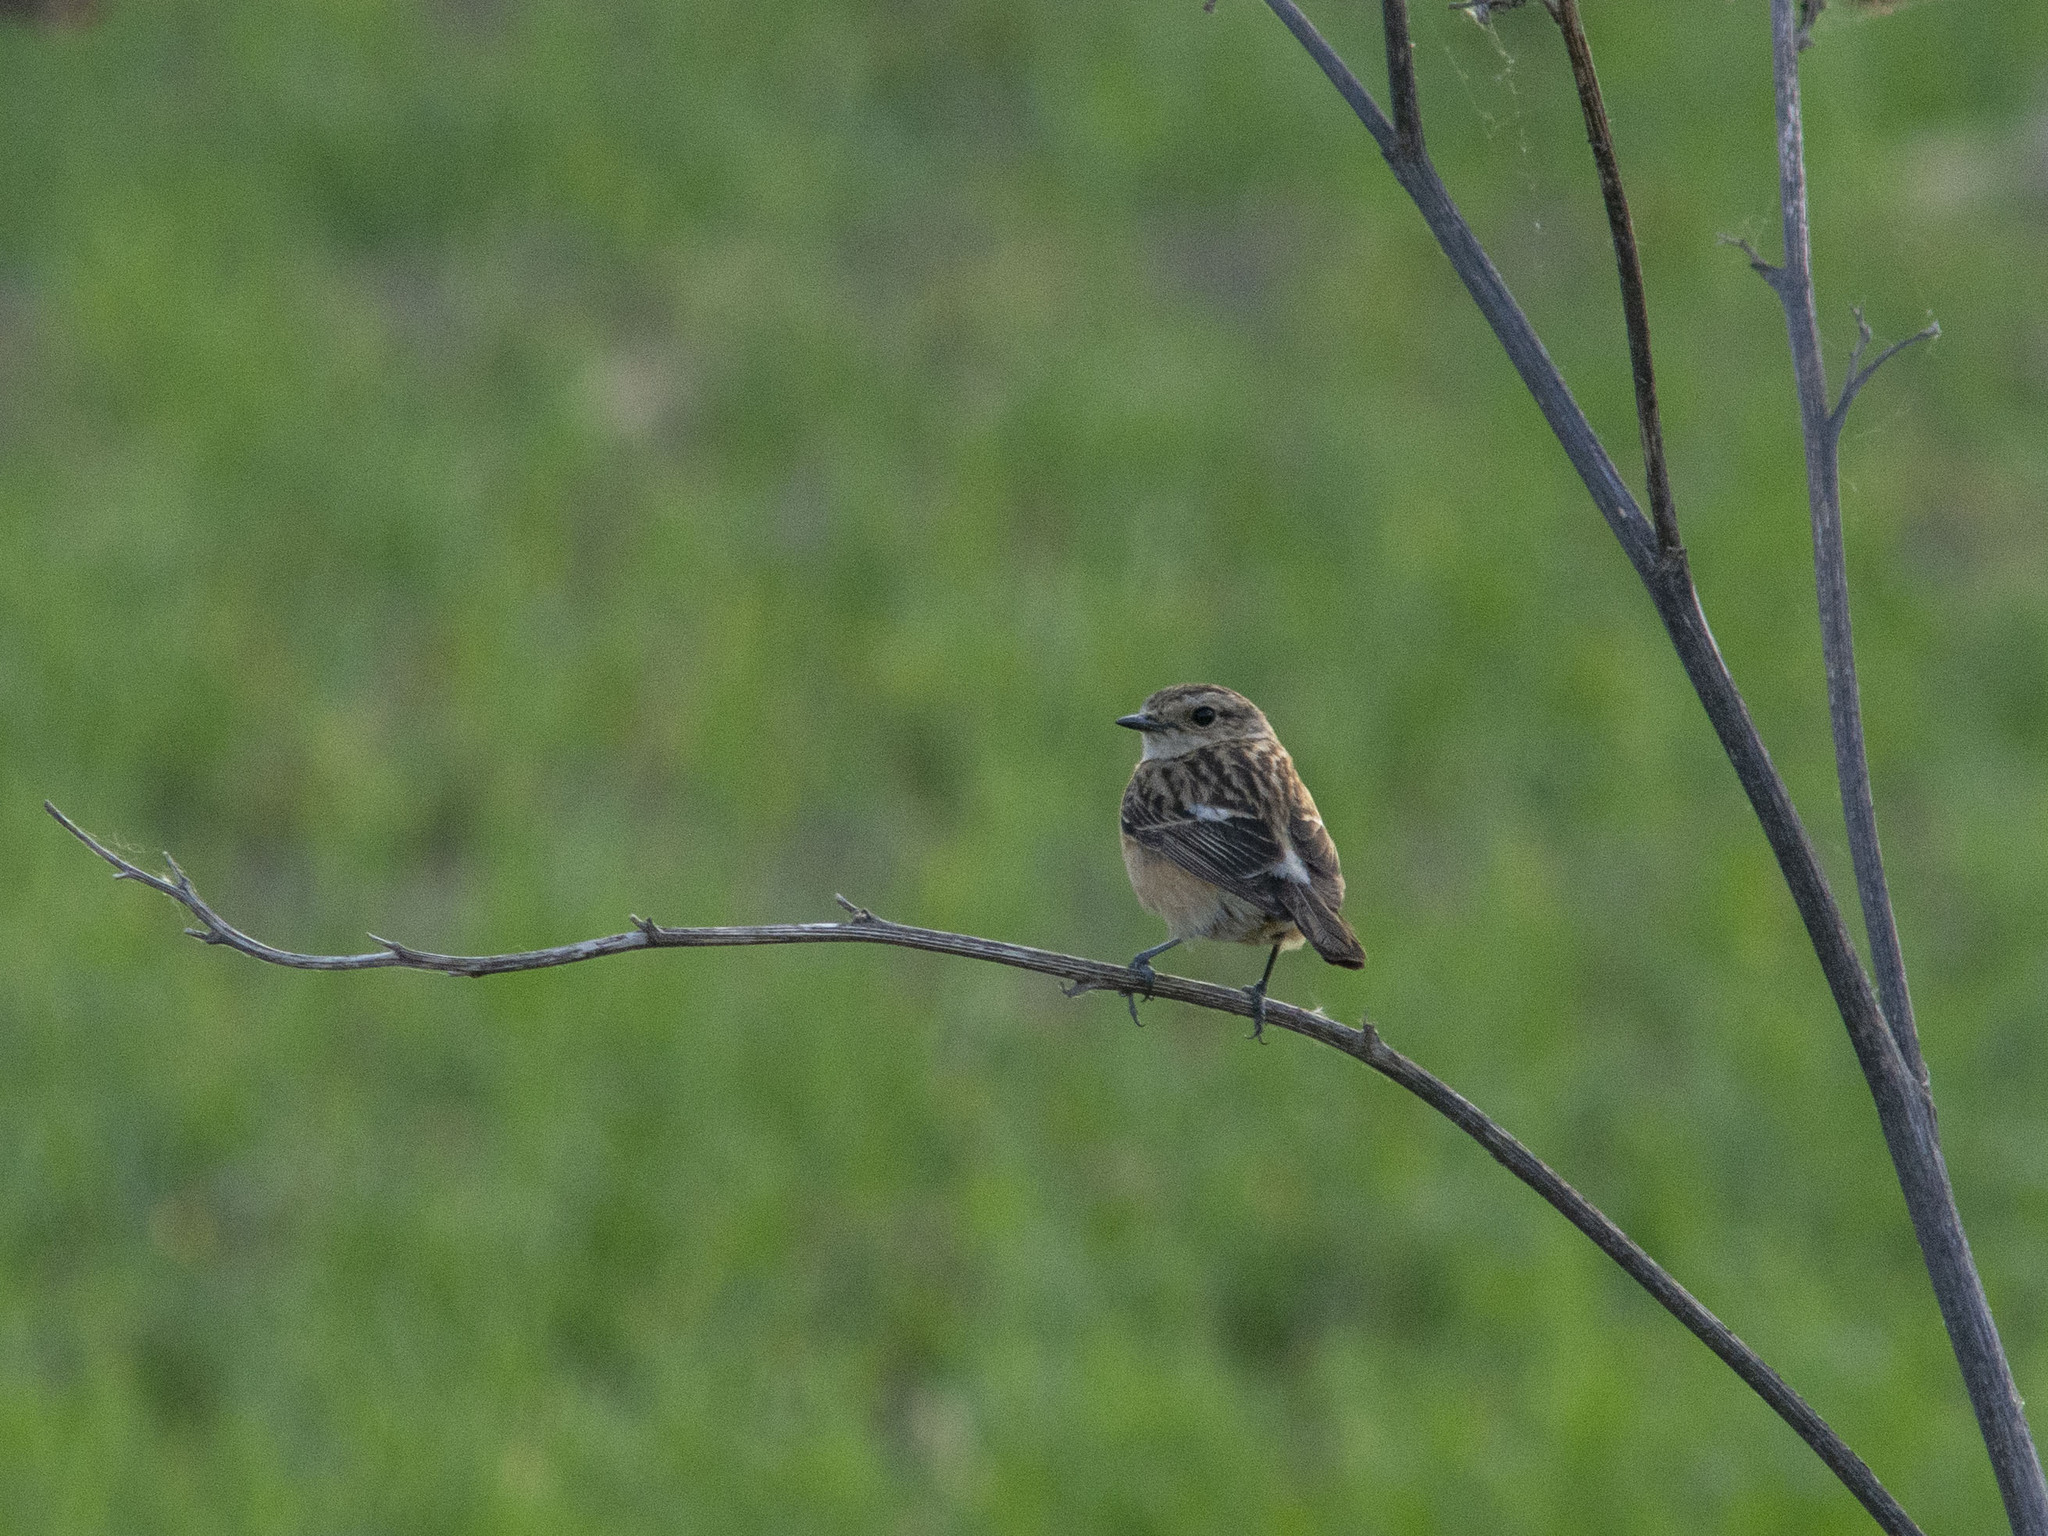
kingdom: Animalia
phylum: Chordata
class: Aves
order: Passeriformes
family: Muscicapidae
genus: Saxicola
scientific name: Saxicola maurus
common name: Siberian stonechat
